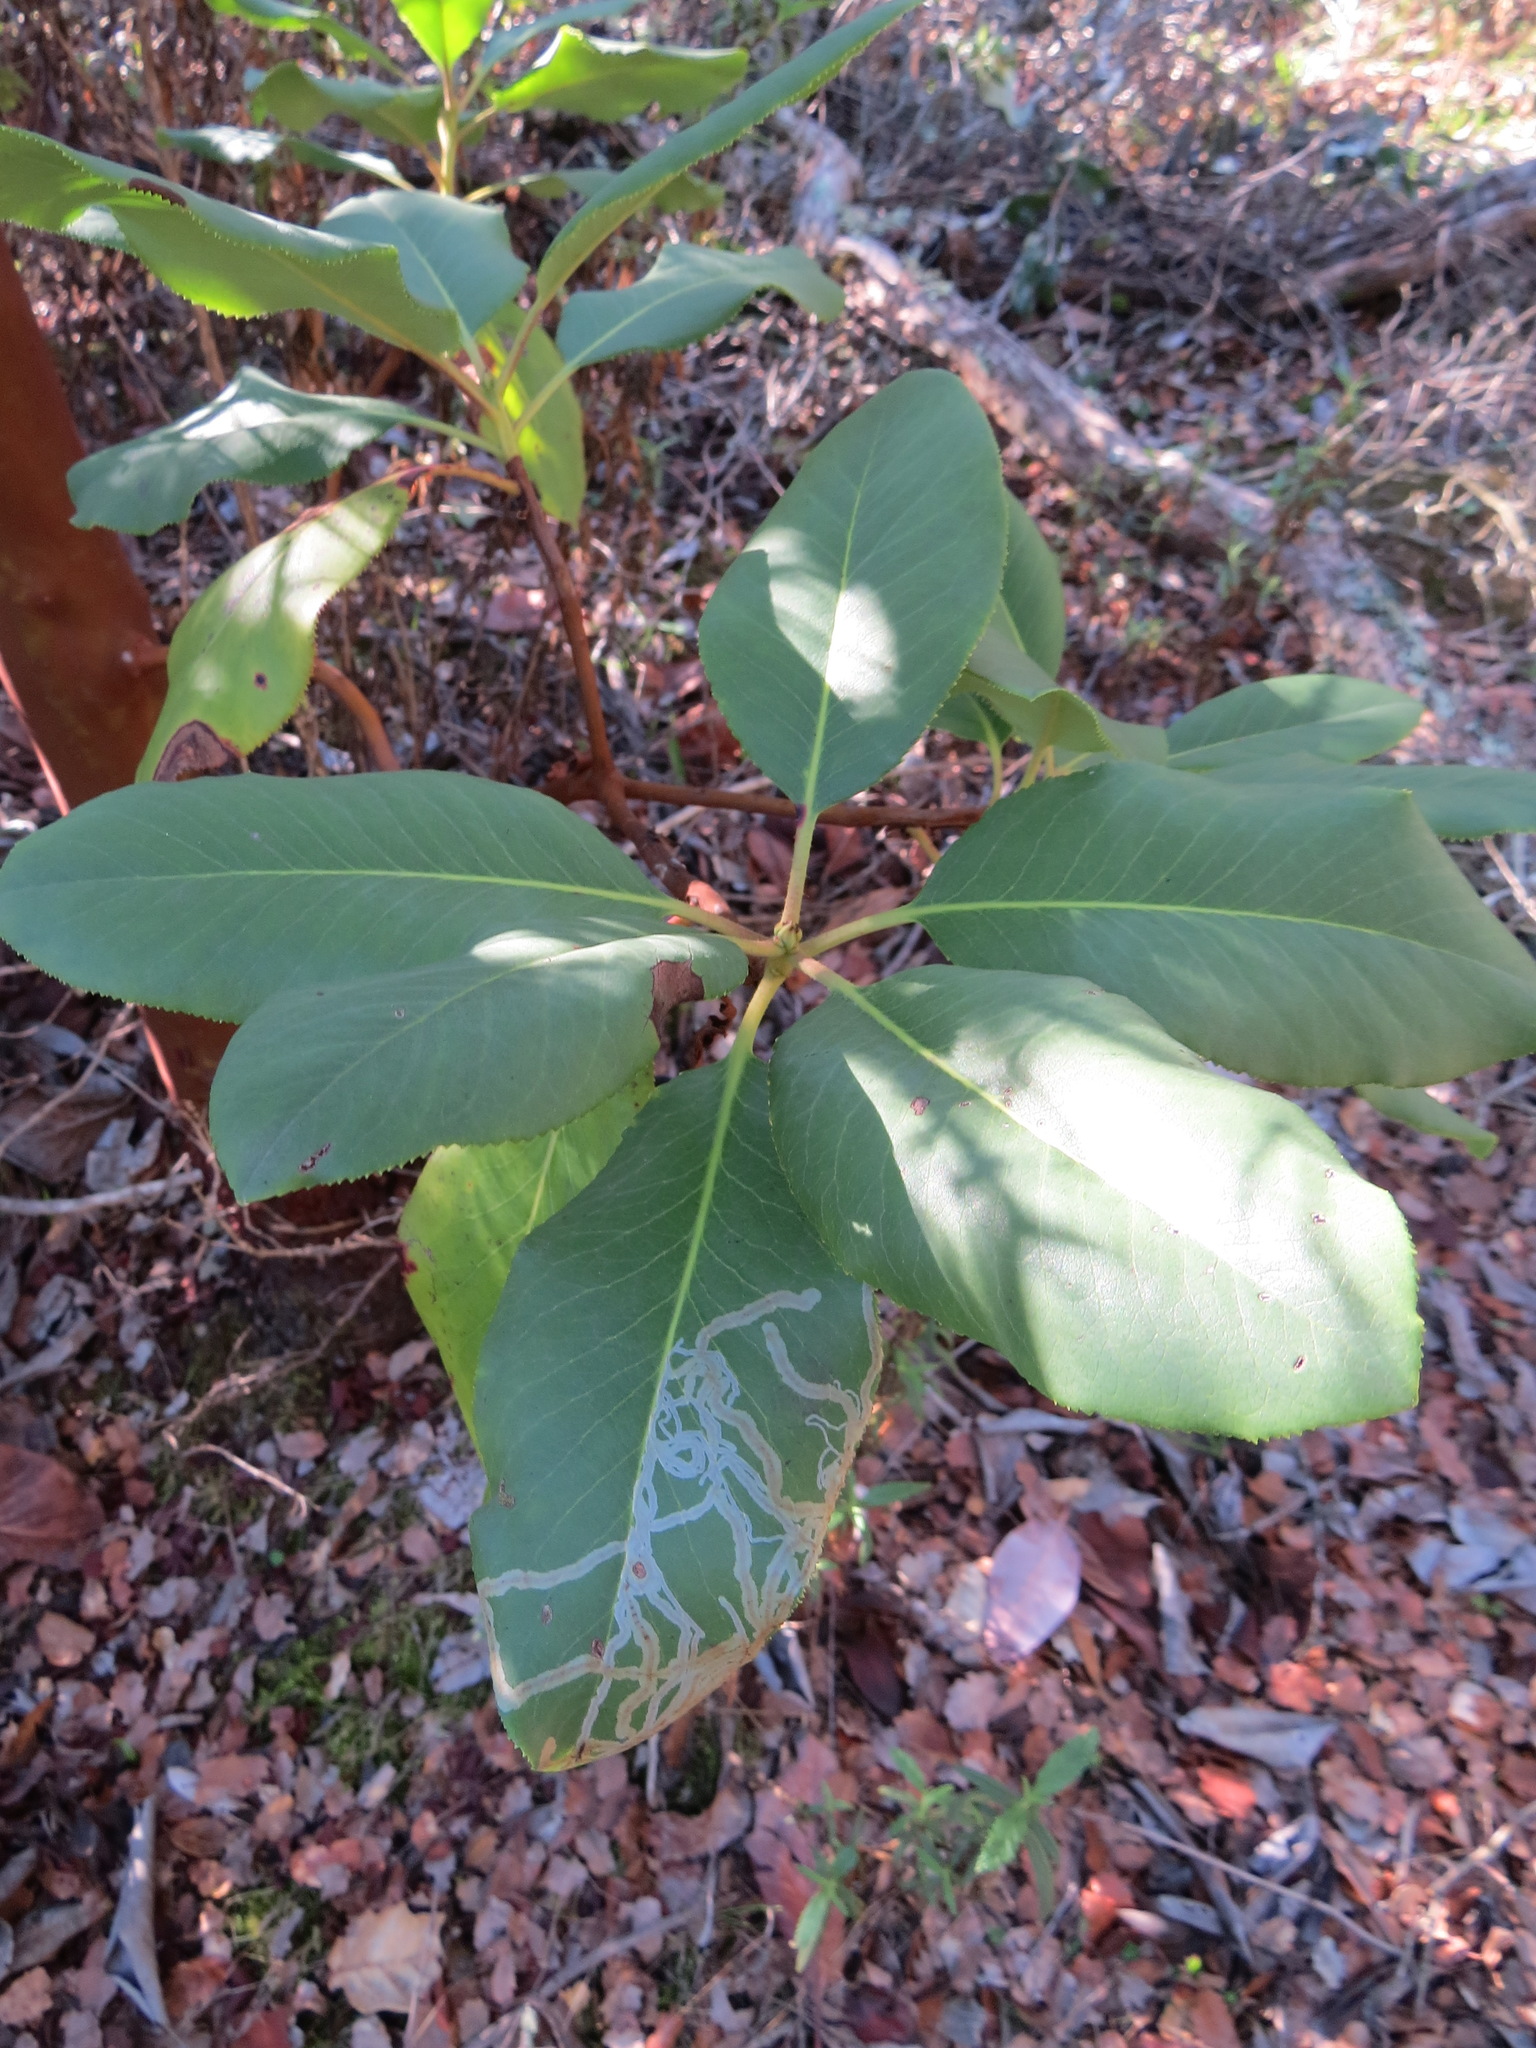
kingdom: Animalia
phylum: Arthropoda
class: Insecta
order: Lepidoptera
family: Gracillariidae
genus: Marmara
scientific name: Marmara arbutiella
